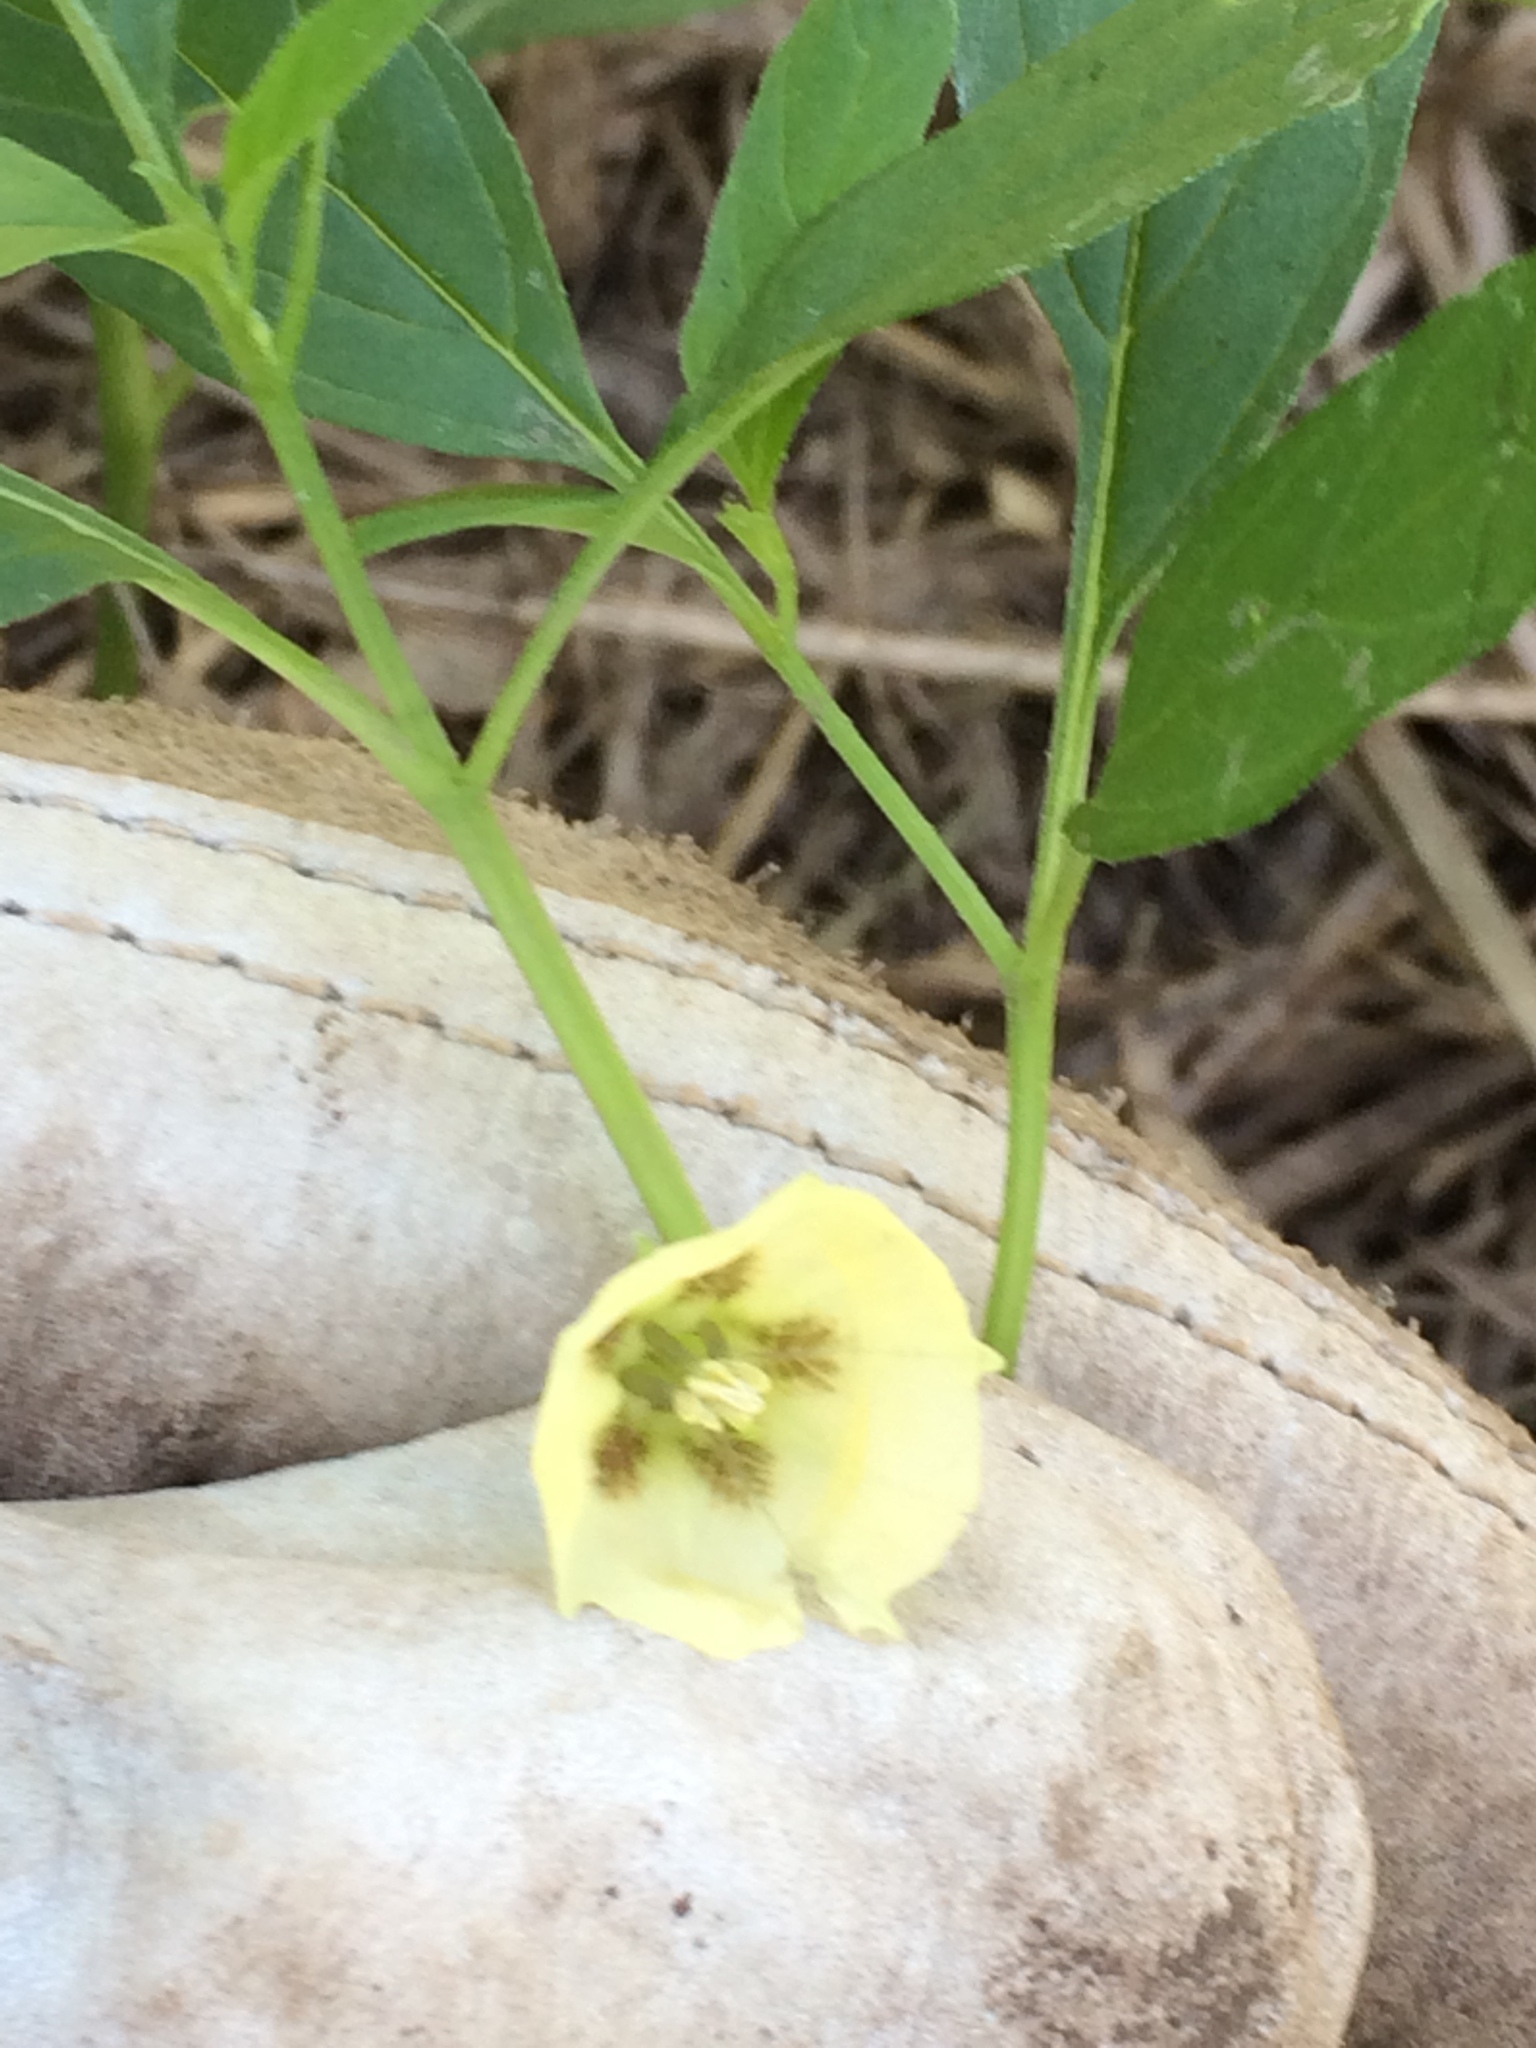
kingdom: Plantae
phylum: Tracheophyta
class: Magnoliopsida
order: Solanales
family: Solanaceae
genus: Physalis
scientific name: Physalis longifolia
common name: Common ground-cherry
